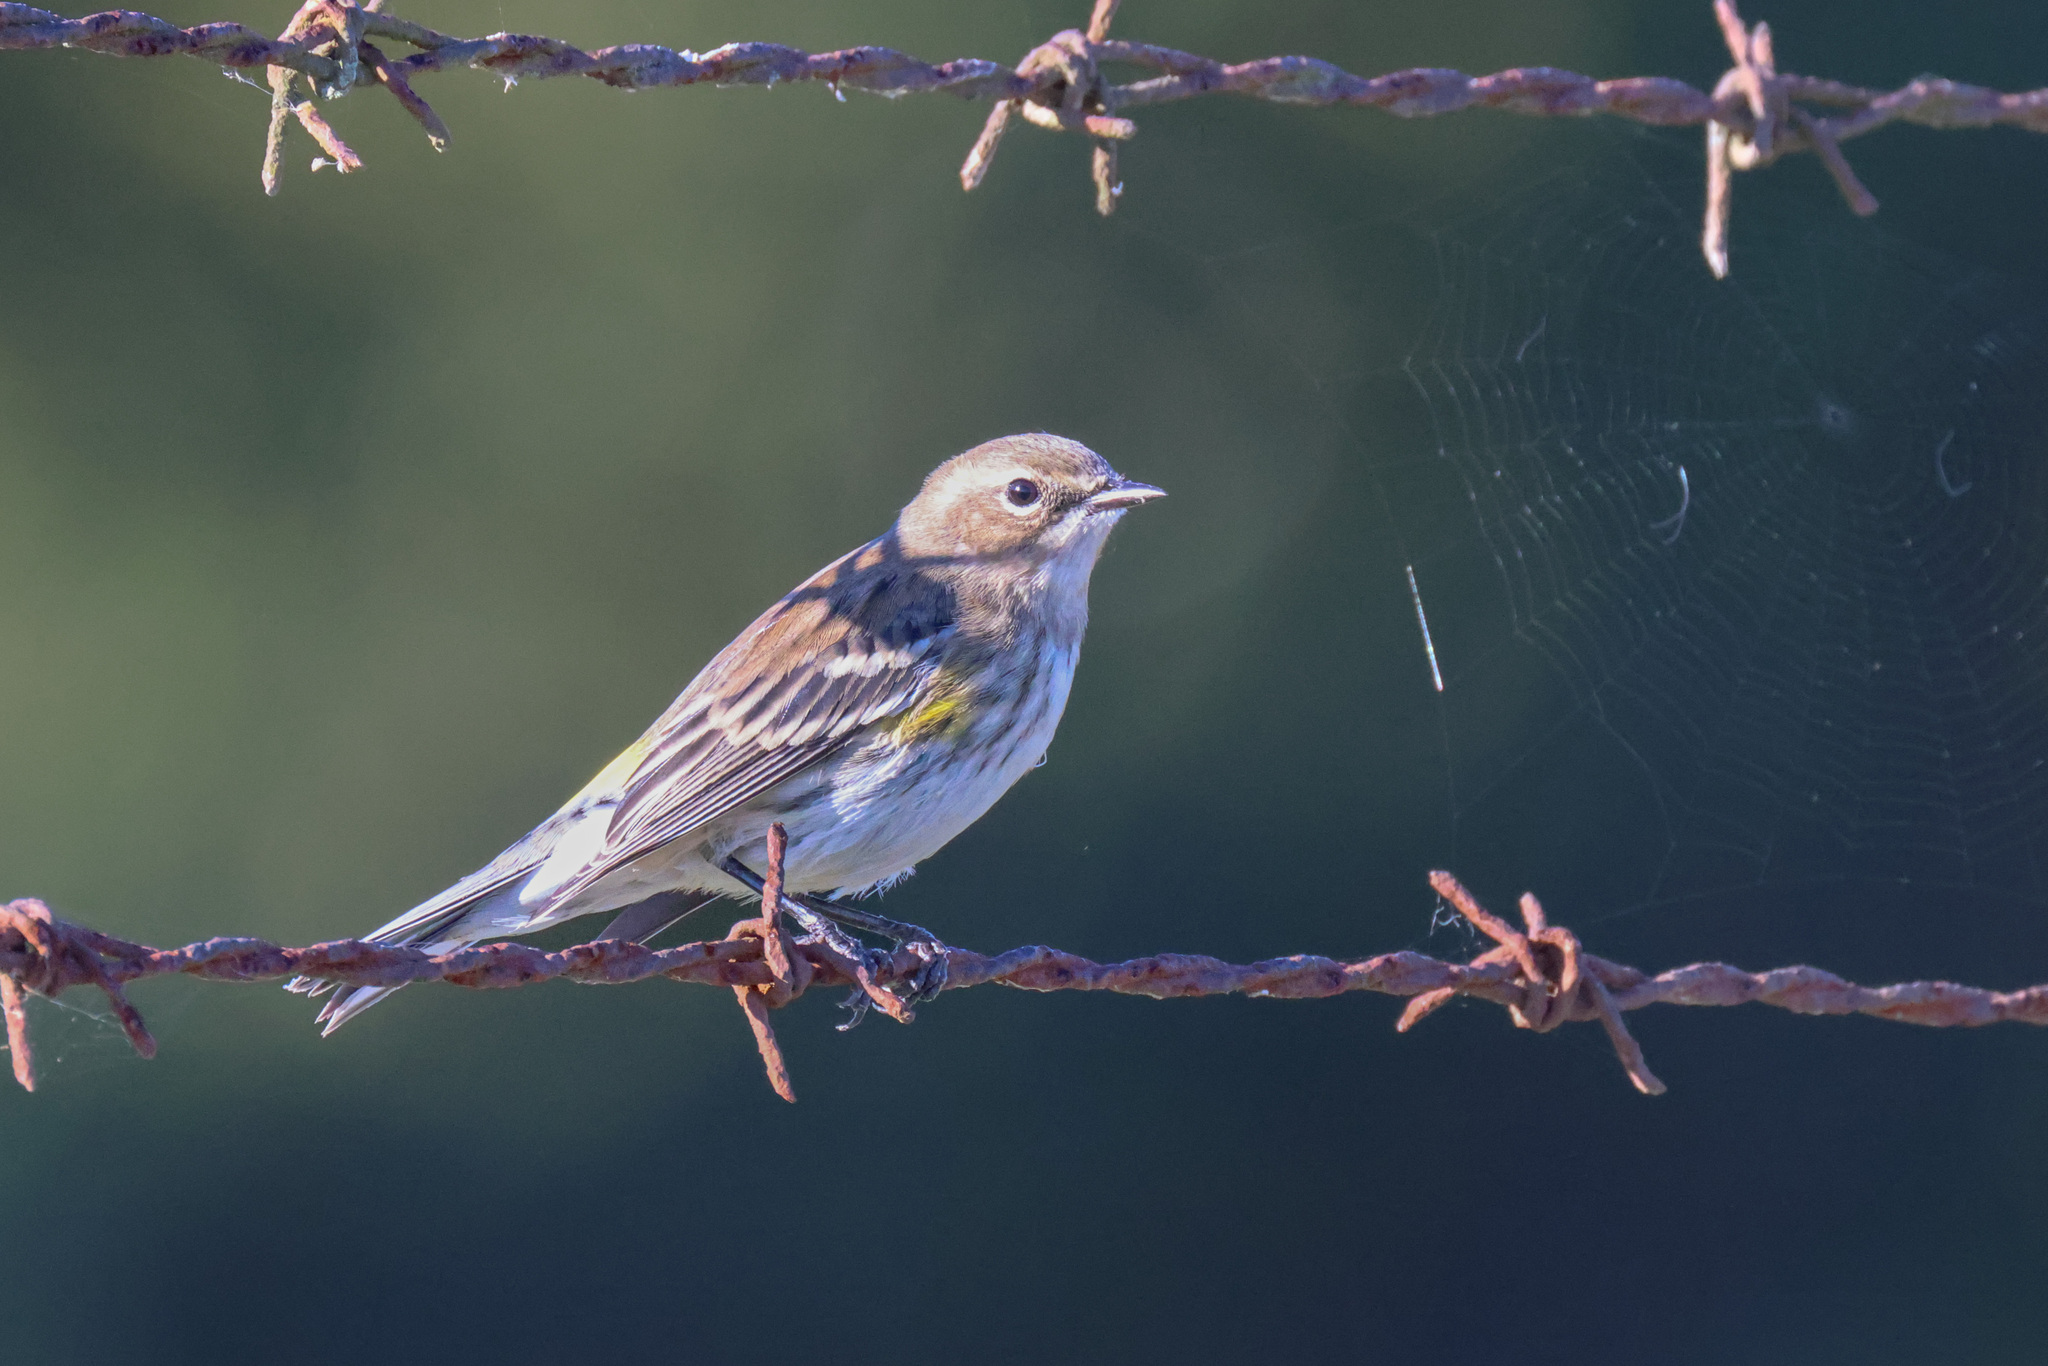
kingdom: Animalia
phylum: Chordata
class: Aves
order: Passeriformes
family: Parulidae
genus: Setophaga
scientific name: Setophaga coronata
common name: Myrtle warbler
